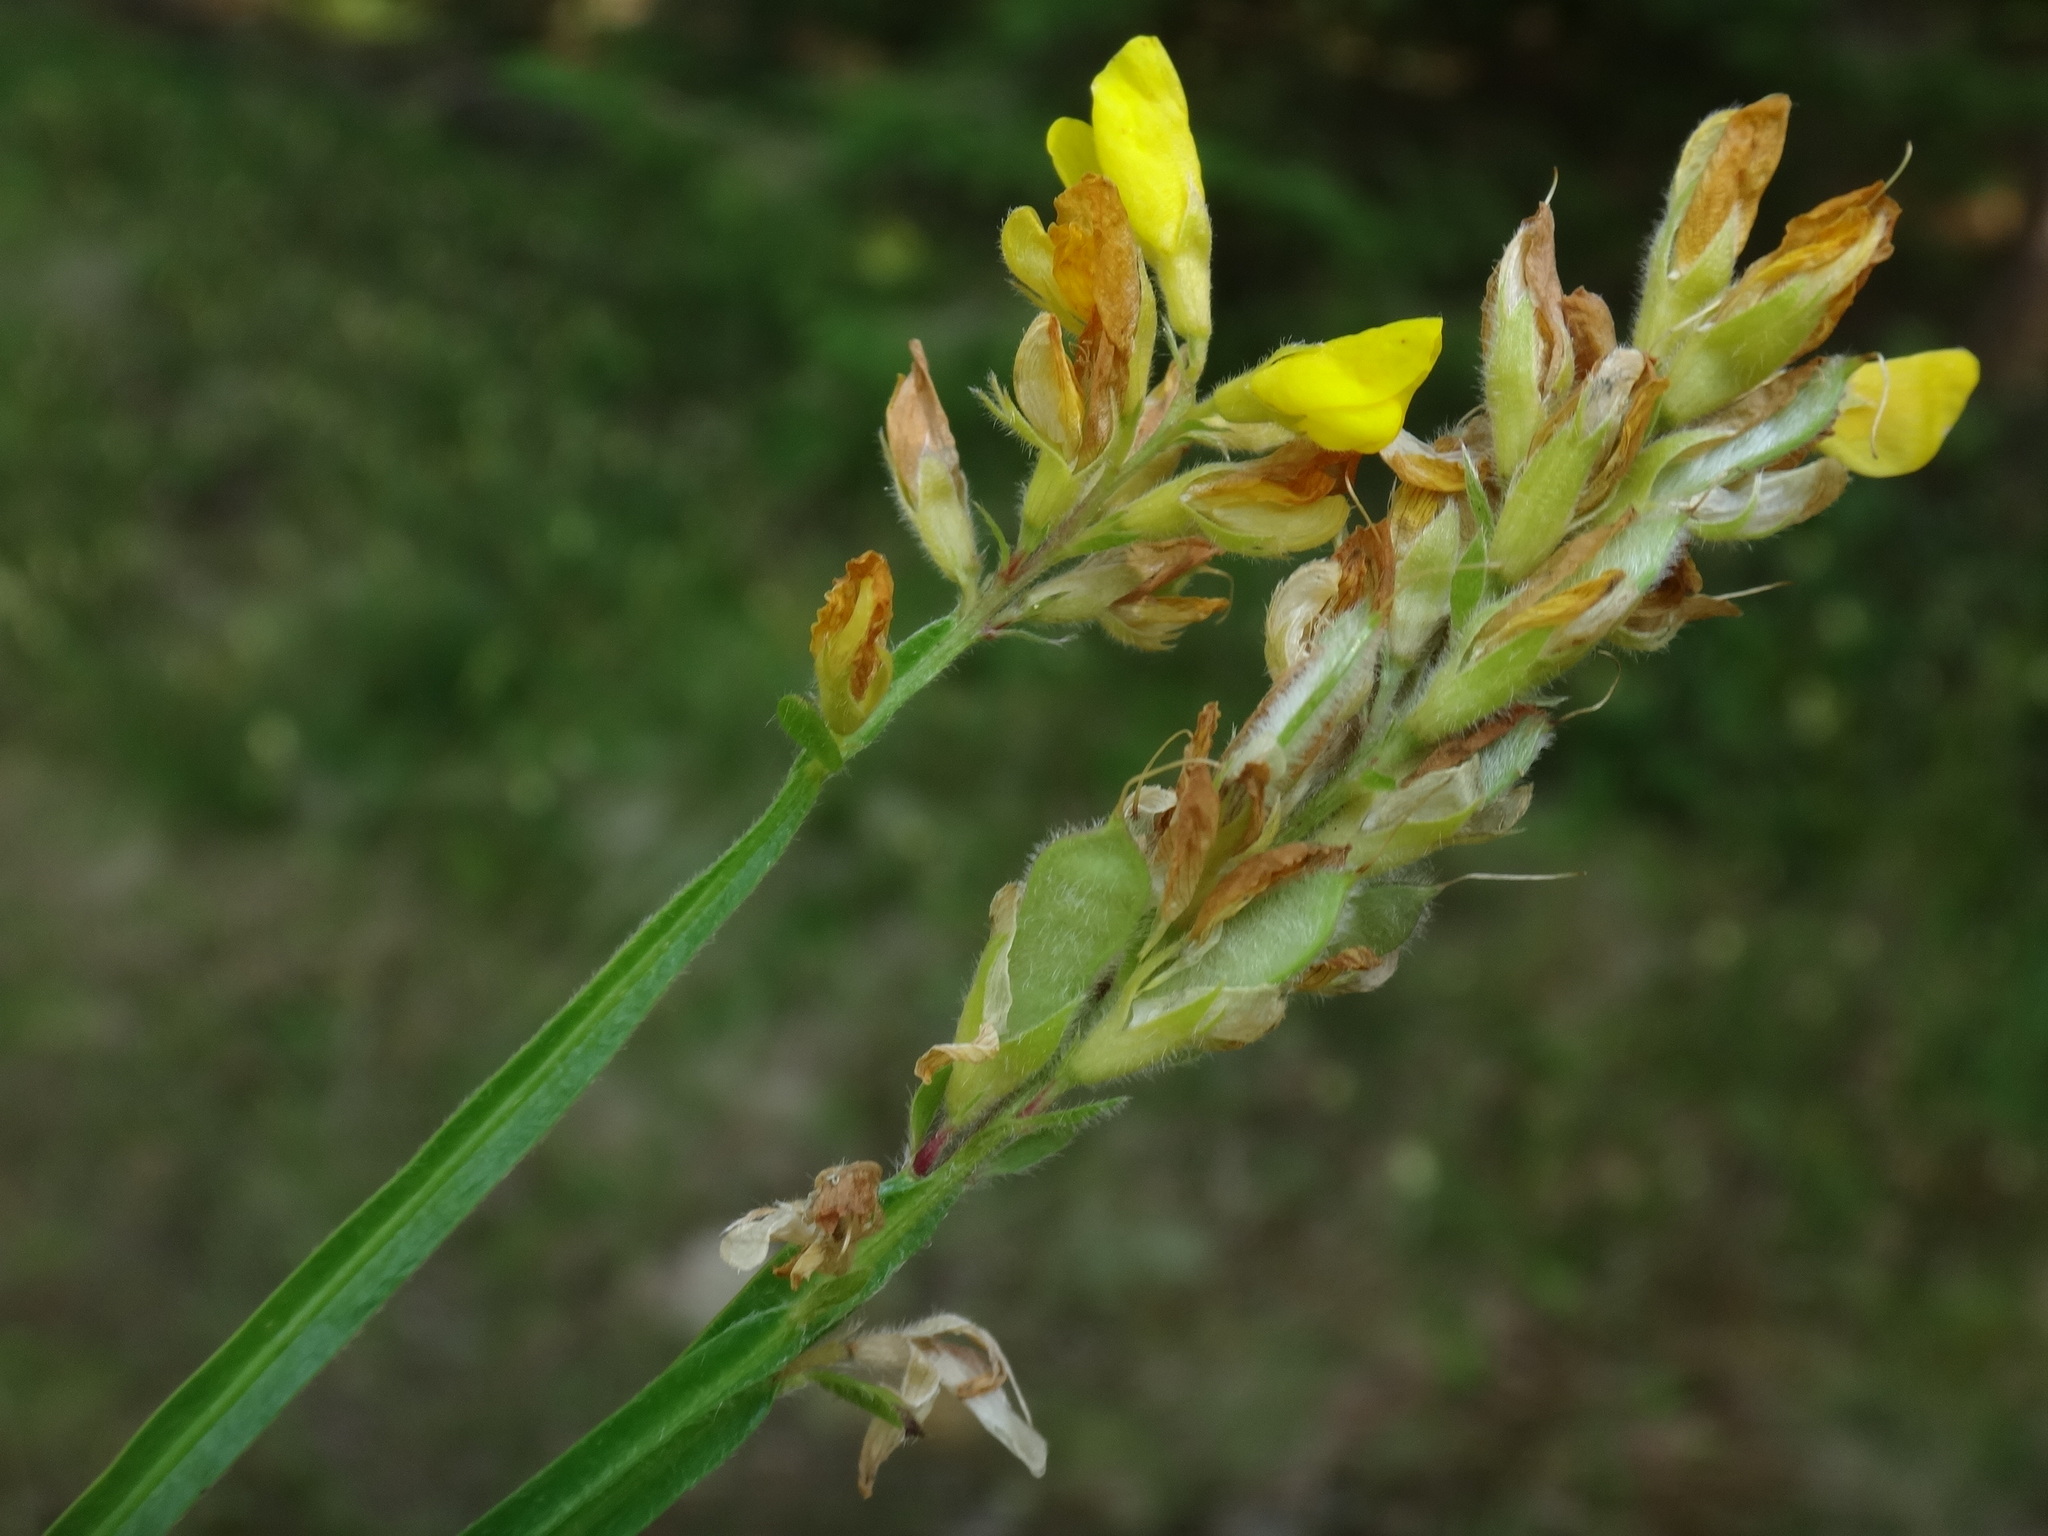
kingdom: Plantae
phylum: Tracheophyta
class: Magnoliopsida
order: Fabales
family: Fabaceae
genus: Genista
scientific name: Genista sagittalis
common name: Winged greenweed
